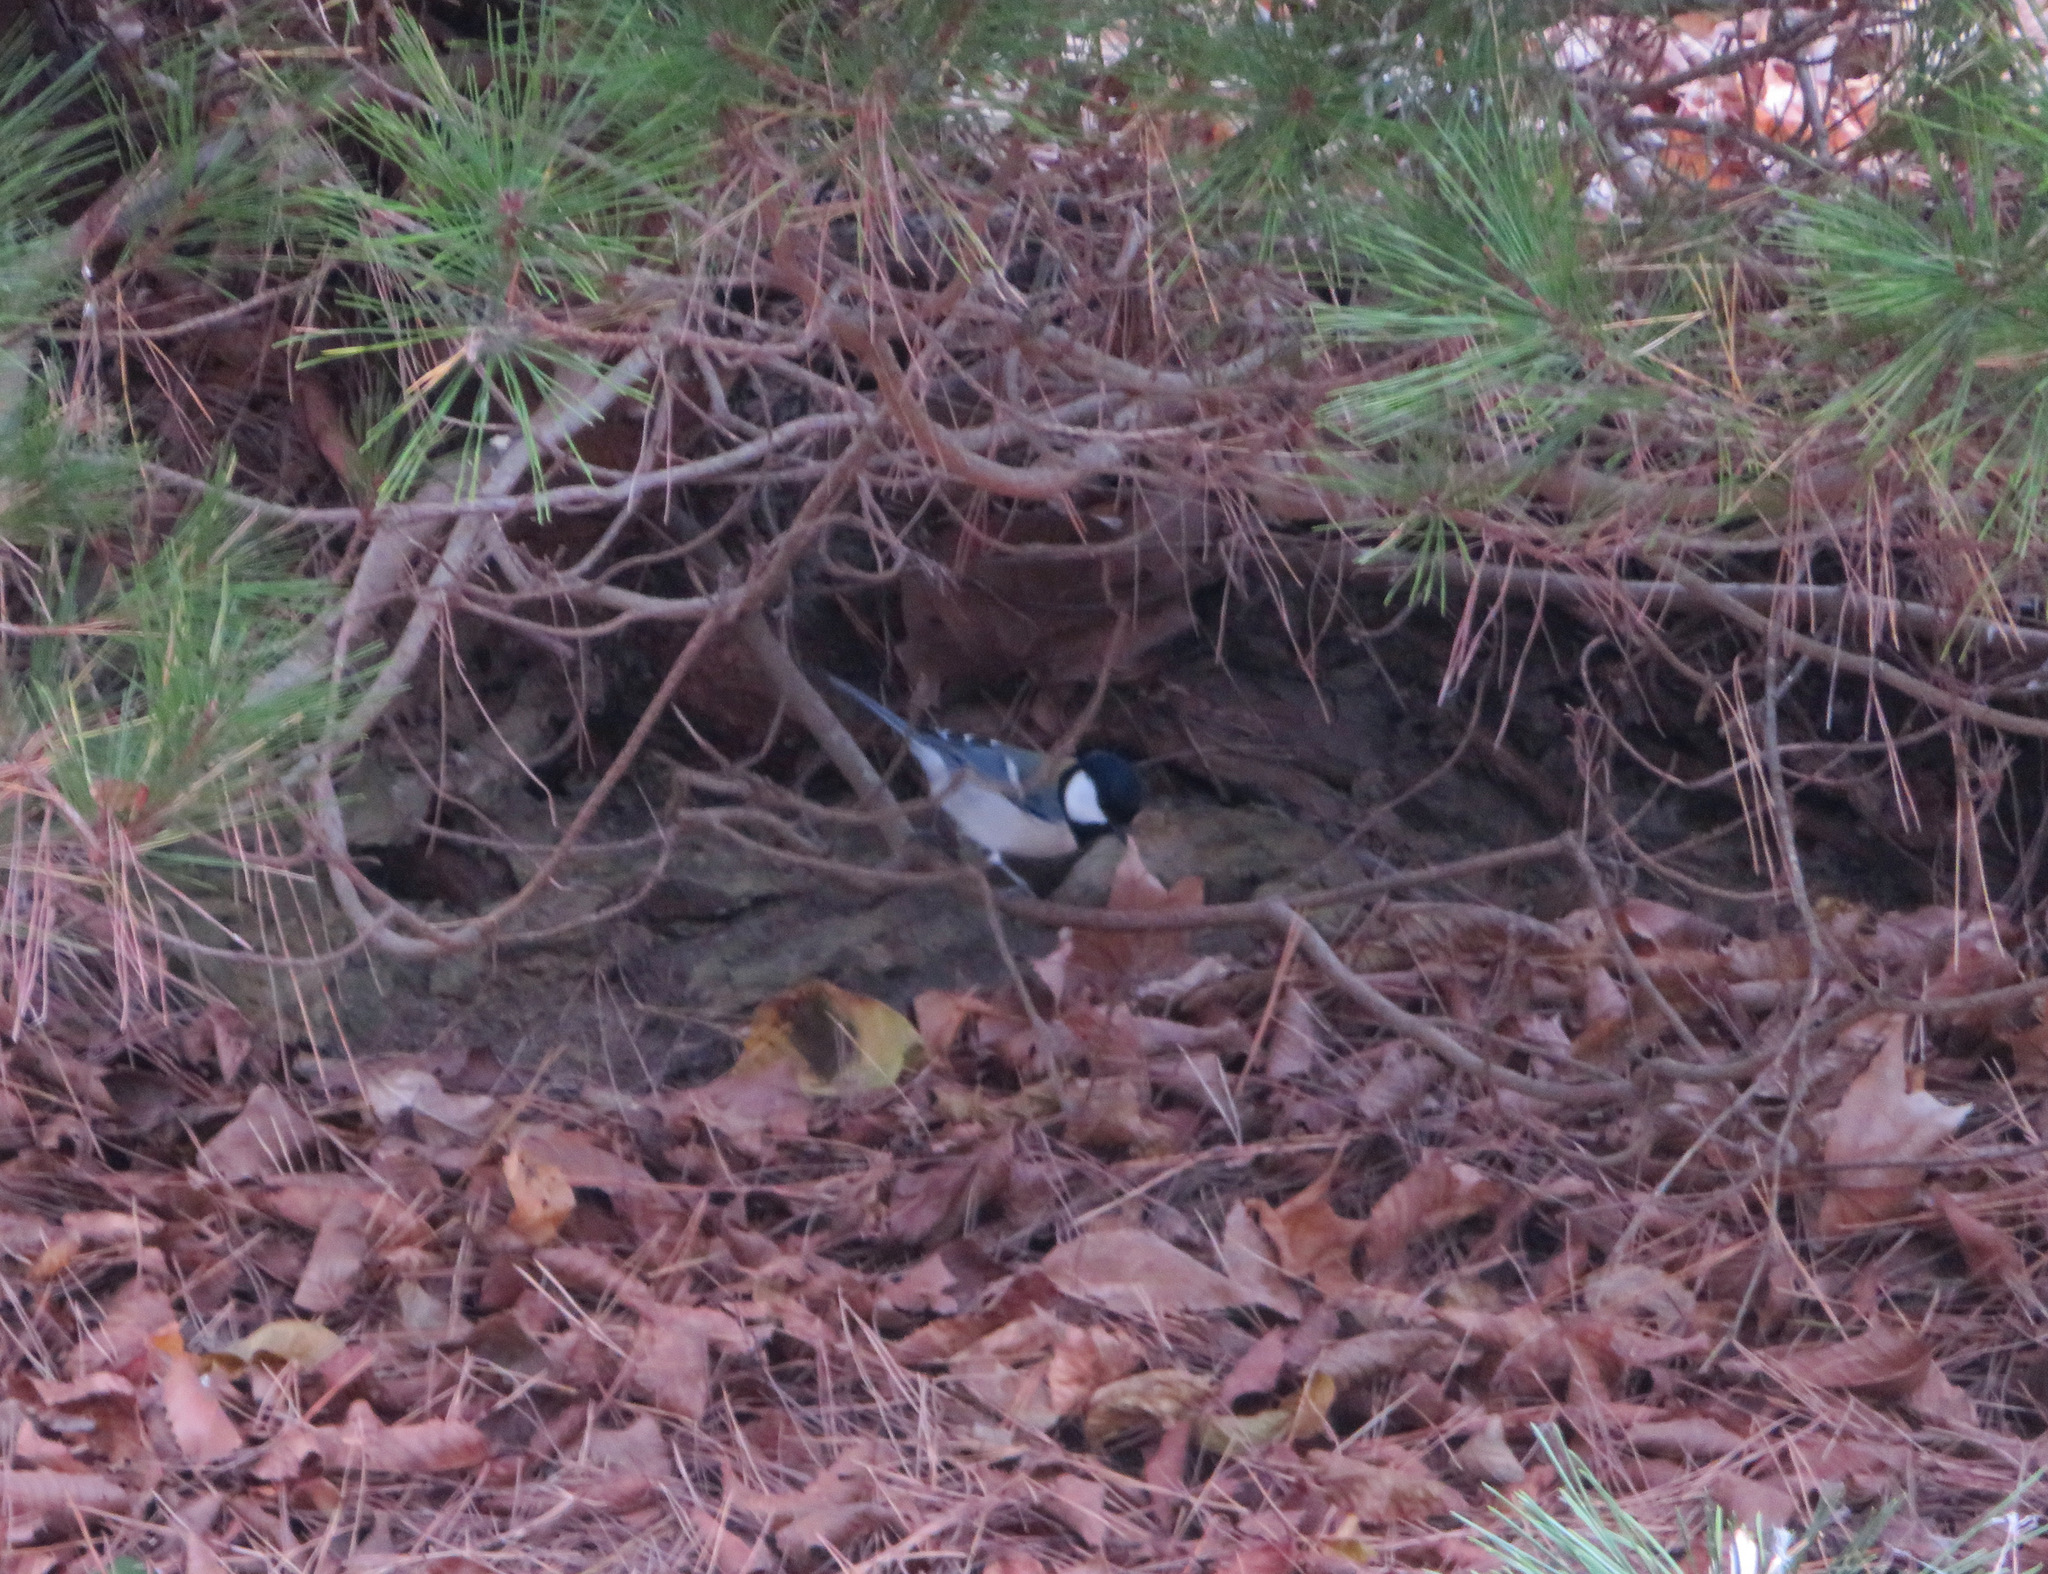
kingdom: Animalia
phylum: Chordata
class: Aves
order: Passeriformes
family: Paridae
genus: Parus
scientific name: Parus minor
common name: Japanese tit
